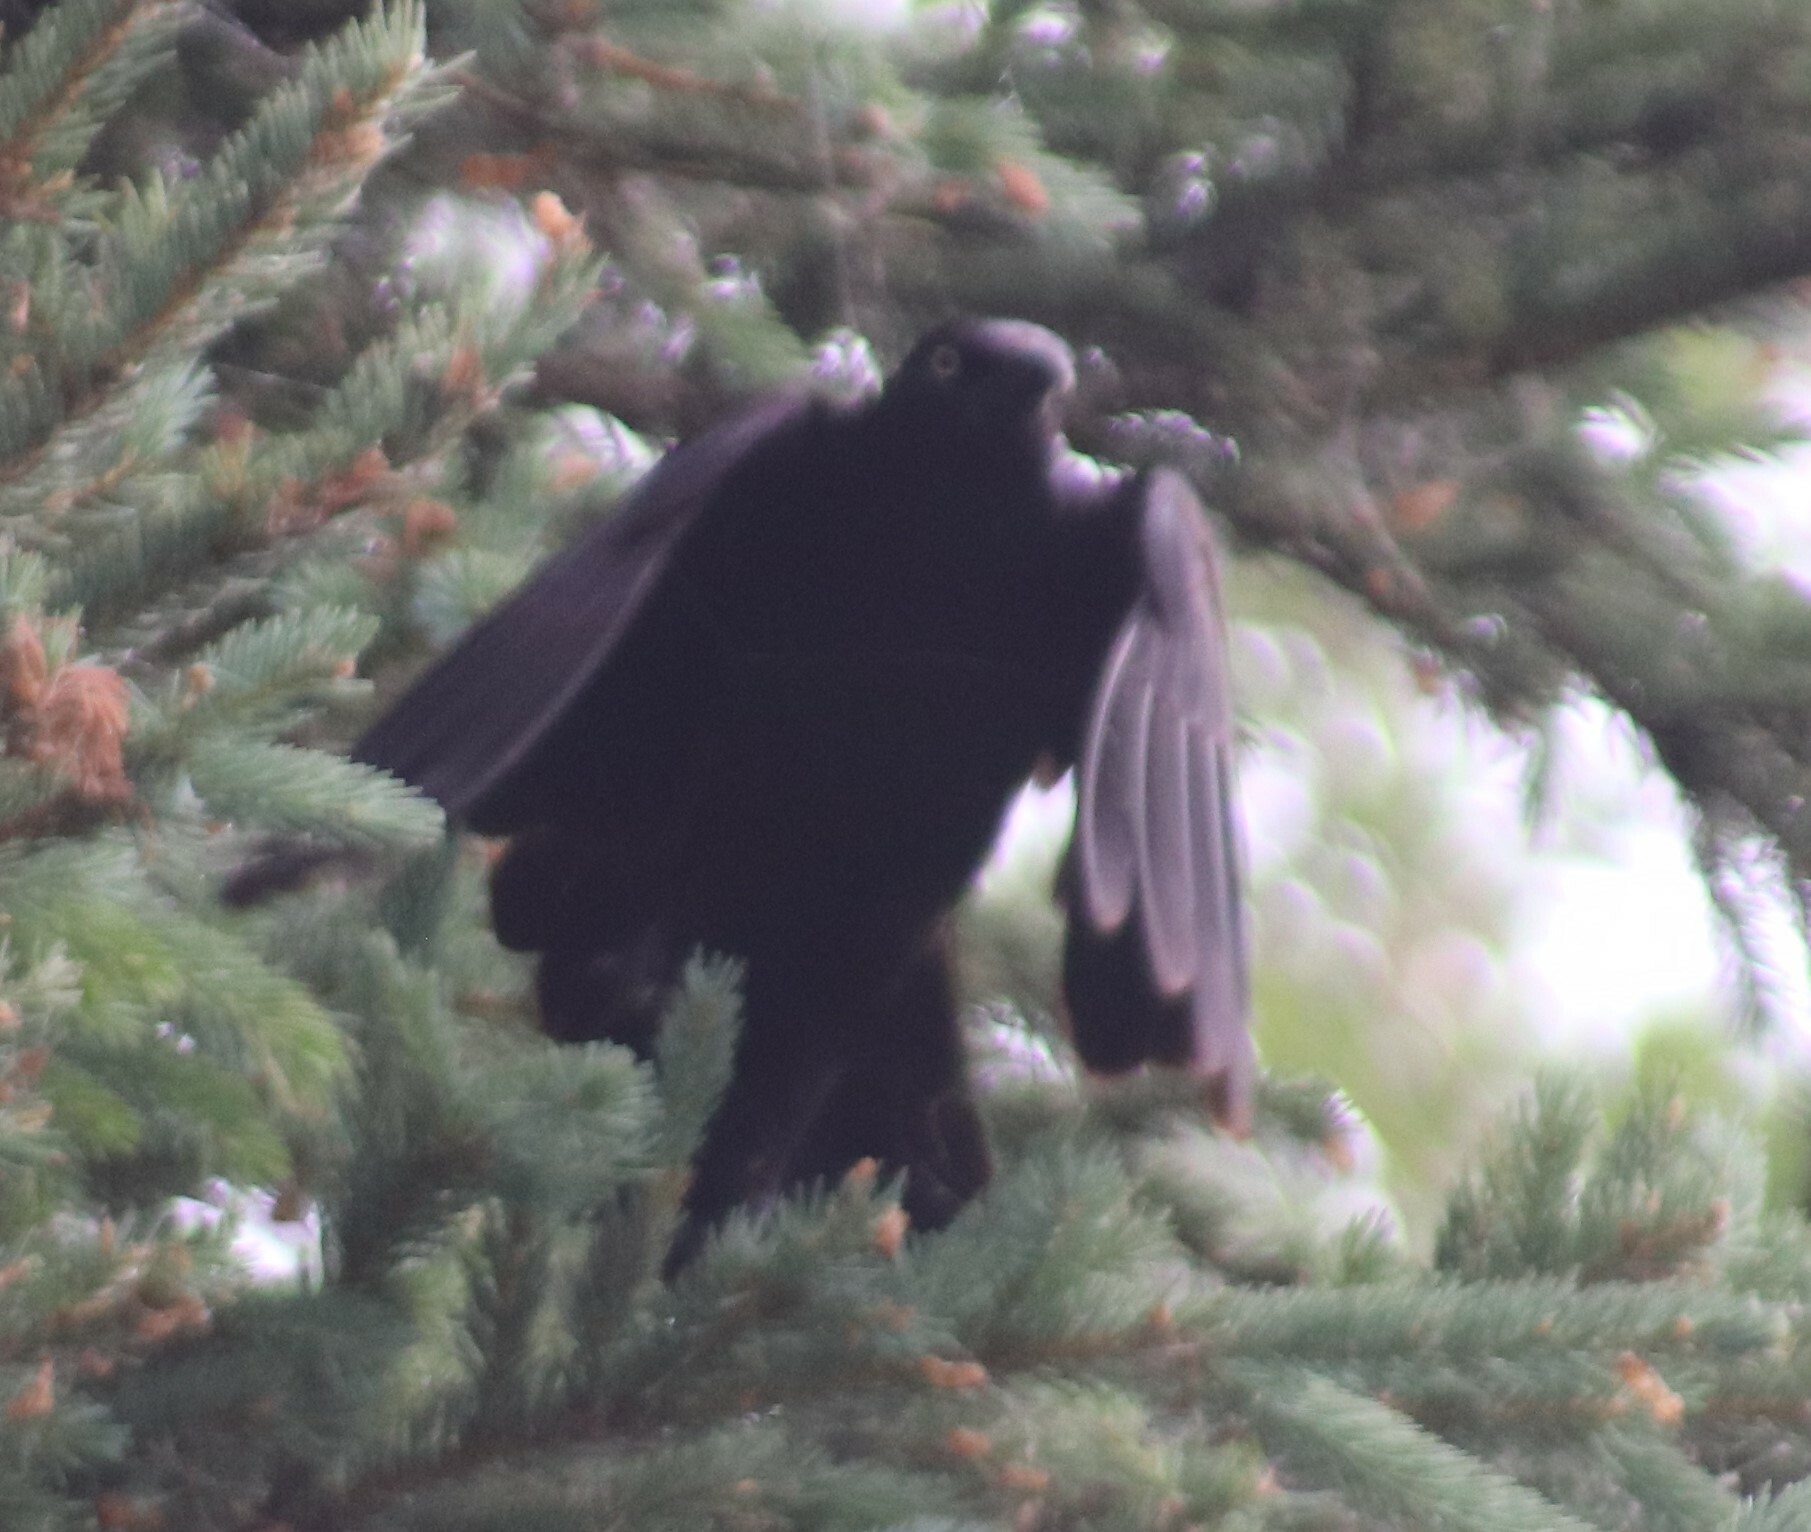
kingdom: Animalia
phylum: Chordata
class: Aves
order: Passeriformes
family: Icteridae
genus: Quiscalus
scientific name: Quiscalus quiscula
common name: Common grackle
